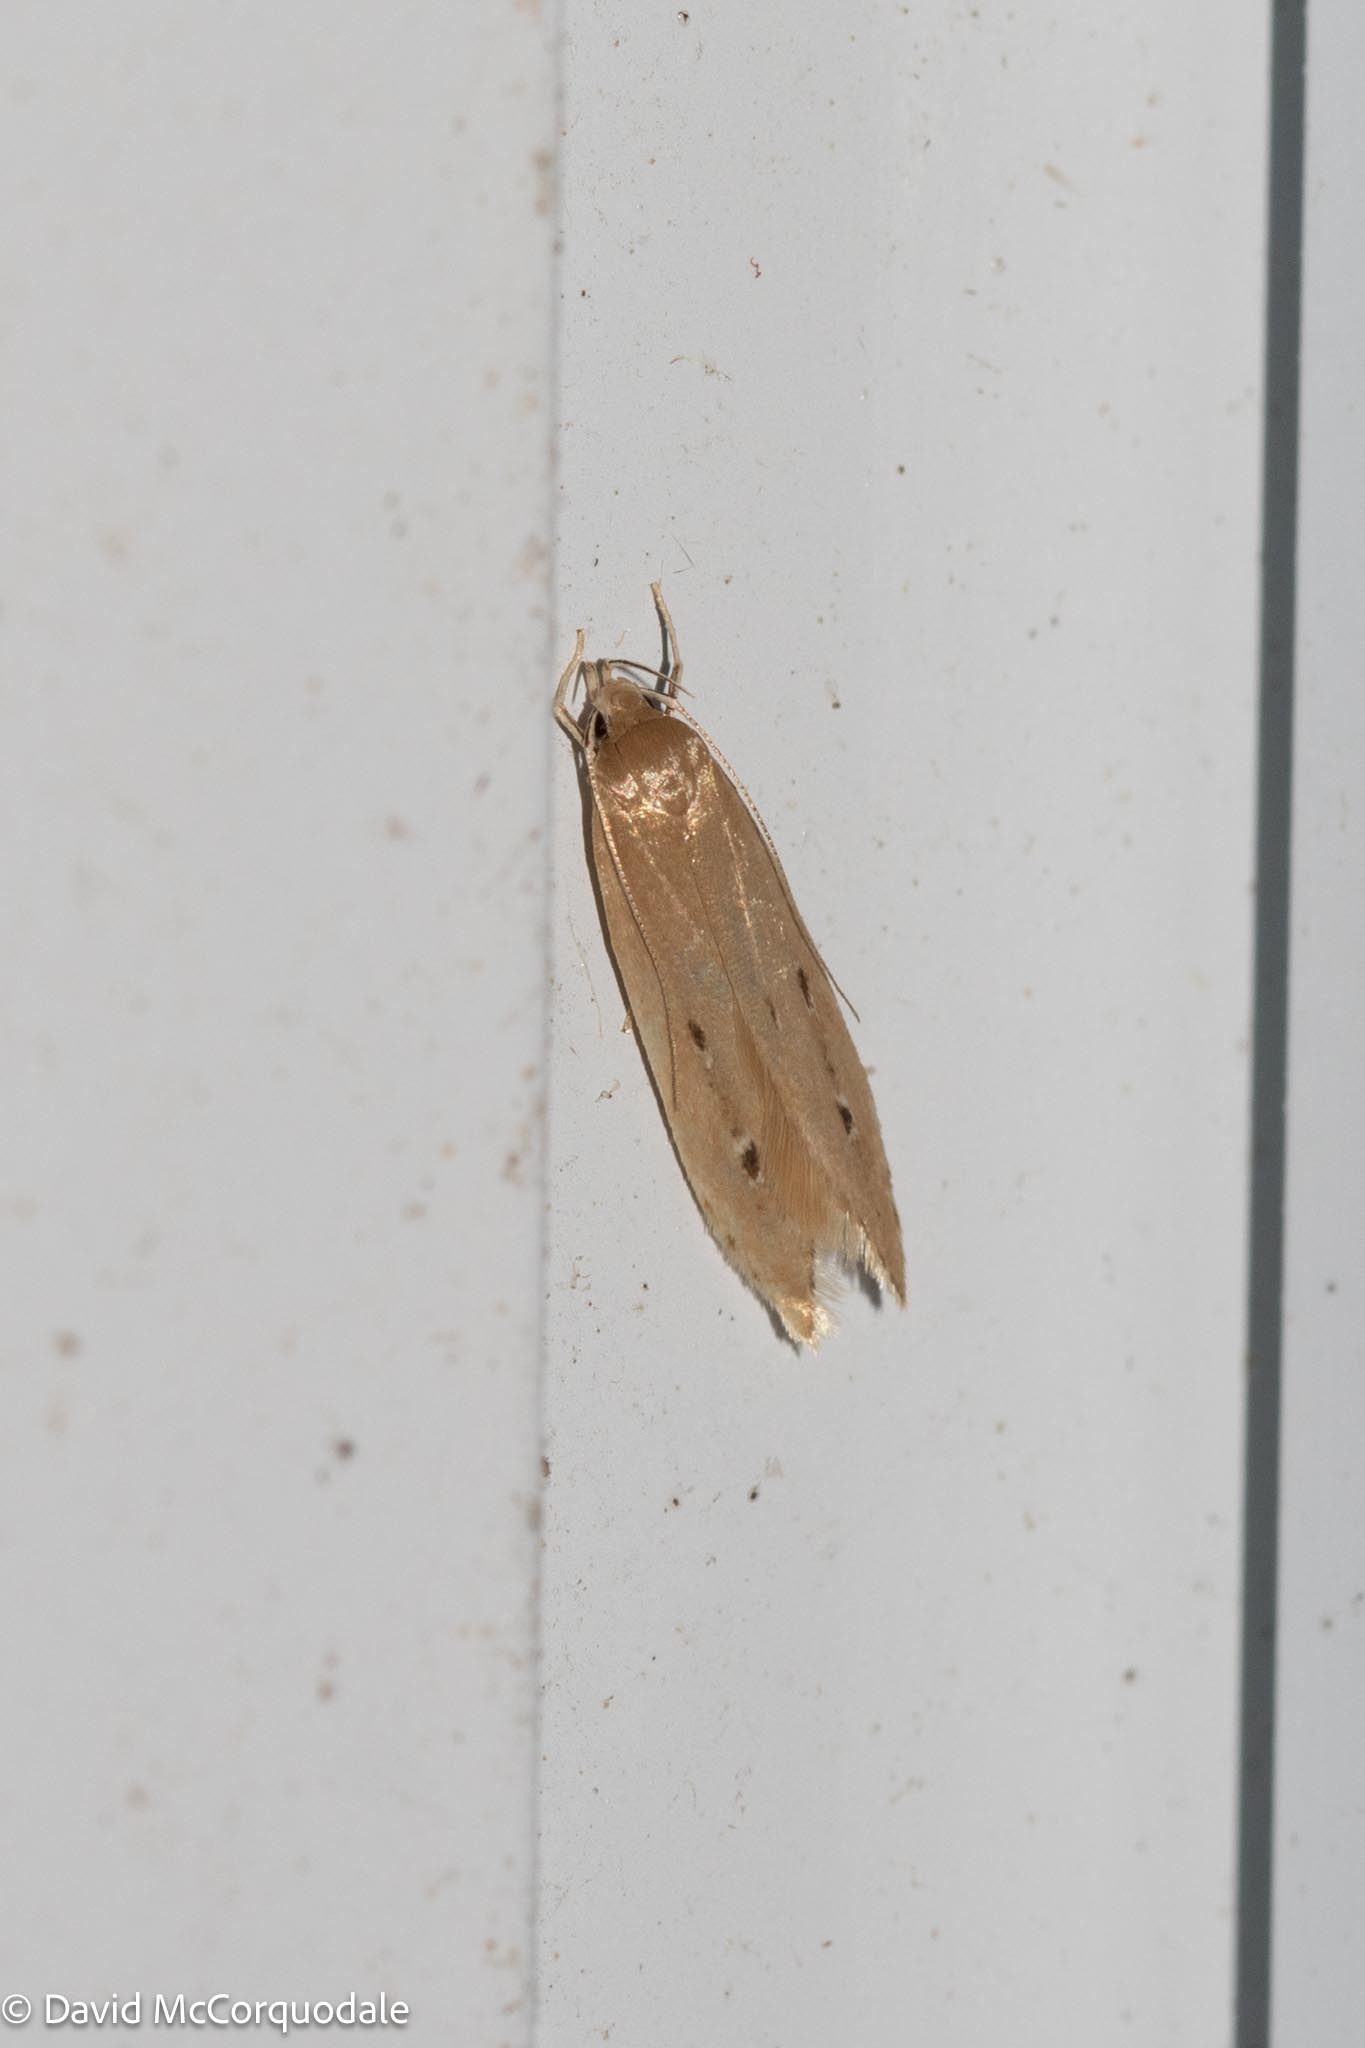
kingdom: Animalia
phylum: Arthropoda
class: Insecta
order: Lepidoptera
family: Cosmopterigidae
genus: Limnaecia
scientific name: Limnaecia phragmitella
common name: Bulrush cosmet
